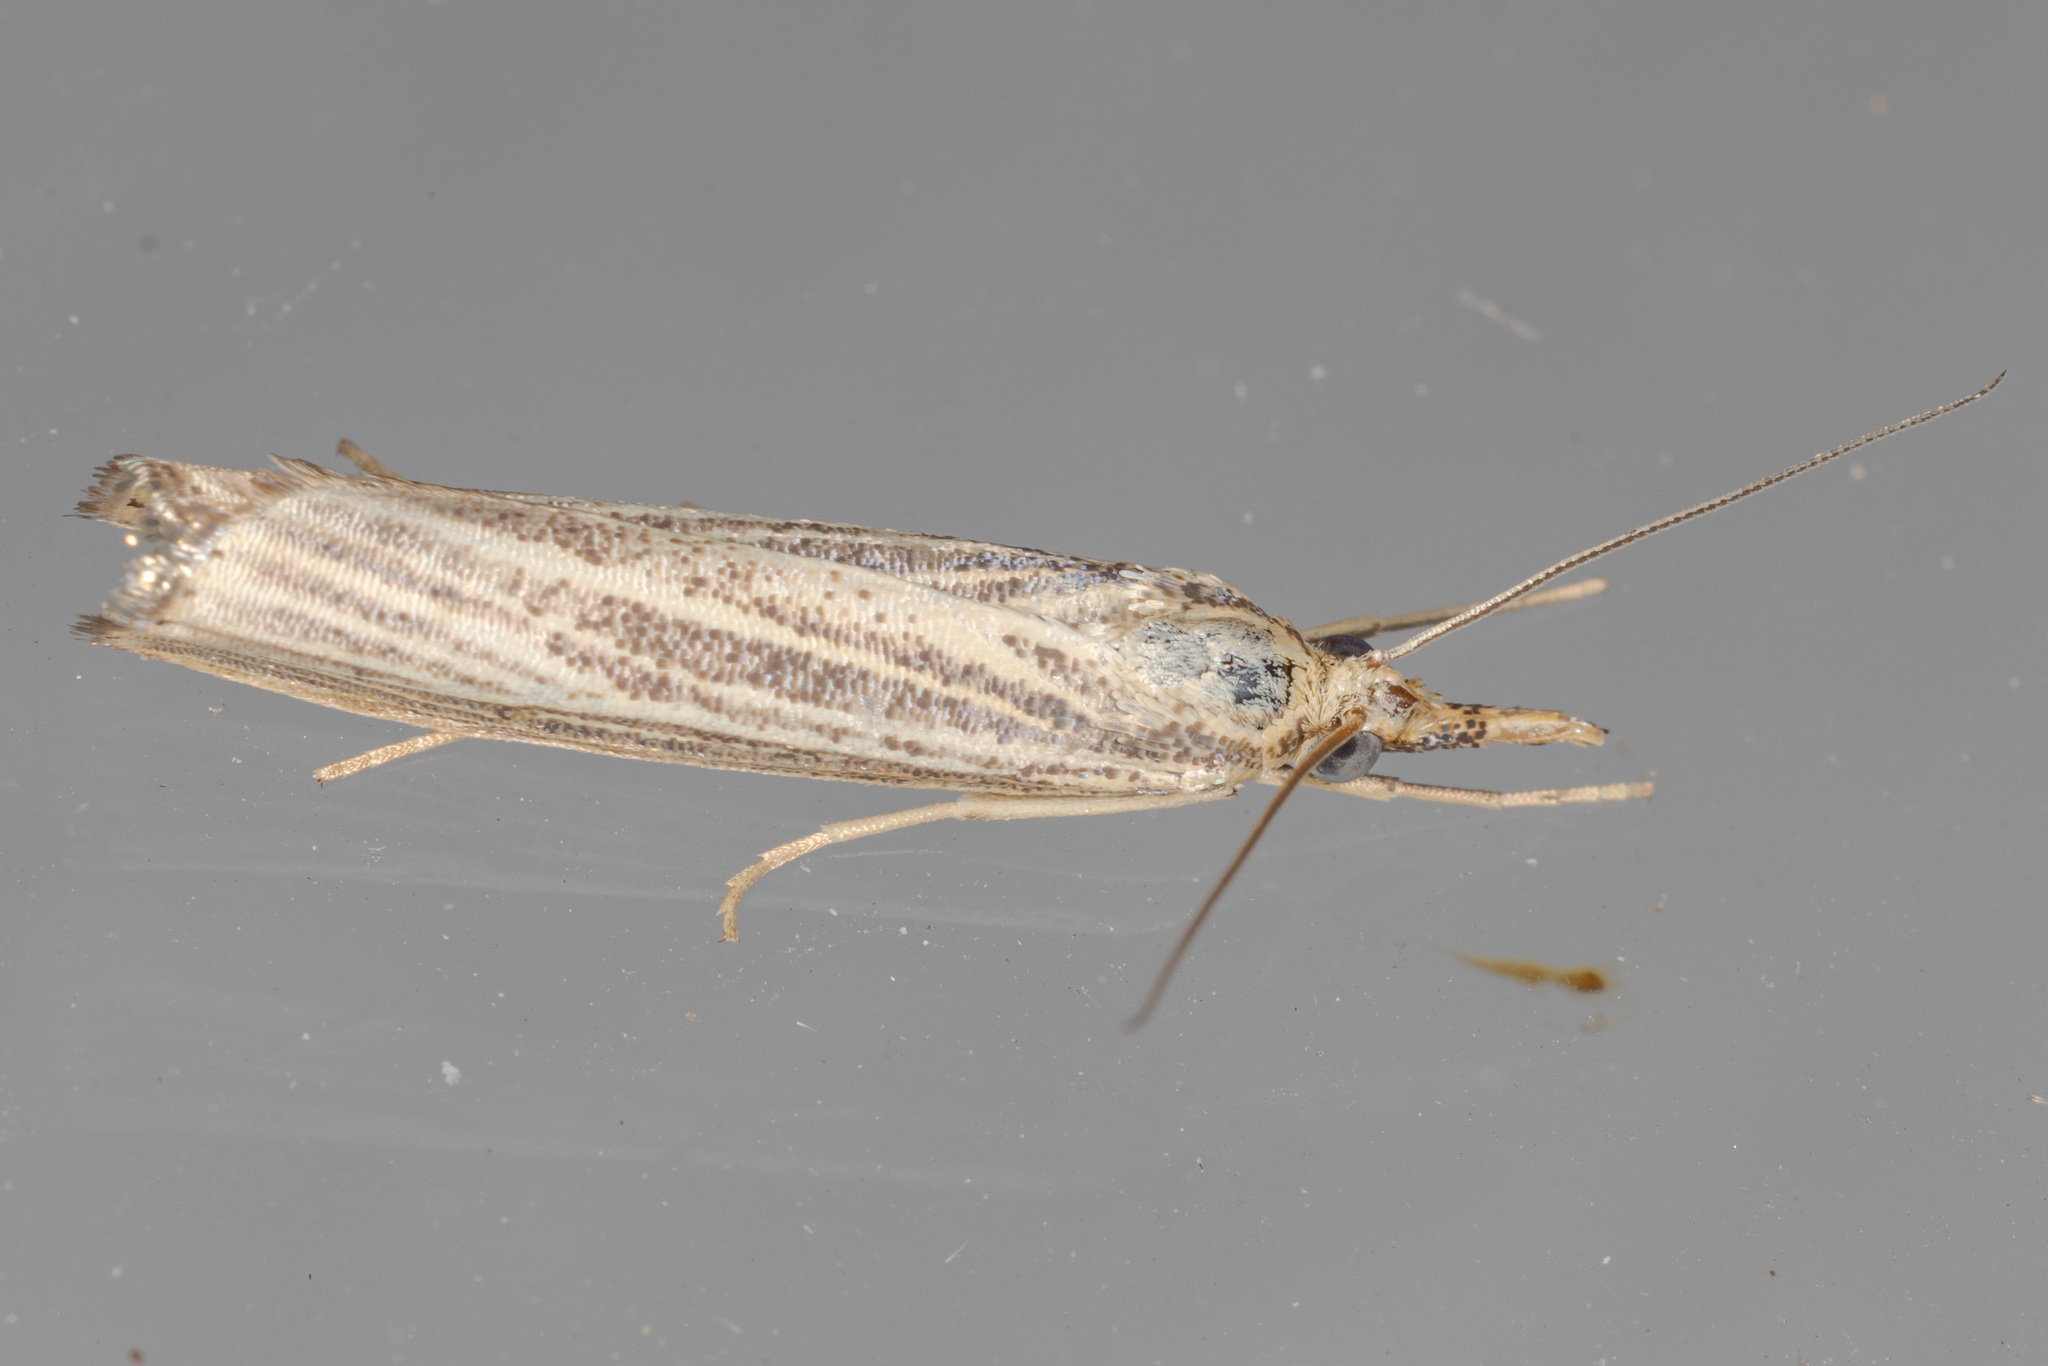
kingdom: Animalia
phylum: Arthropoda
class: Insecta
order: Lepidoptera
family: Crambidae
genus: Agriphila
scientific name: Agriphila vulgivagellus
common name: Vagabond crambus moth
